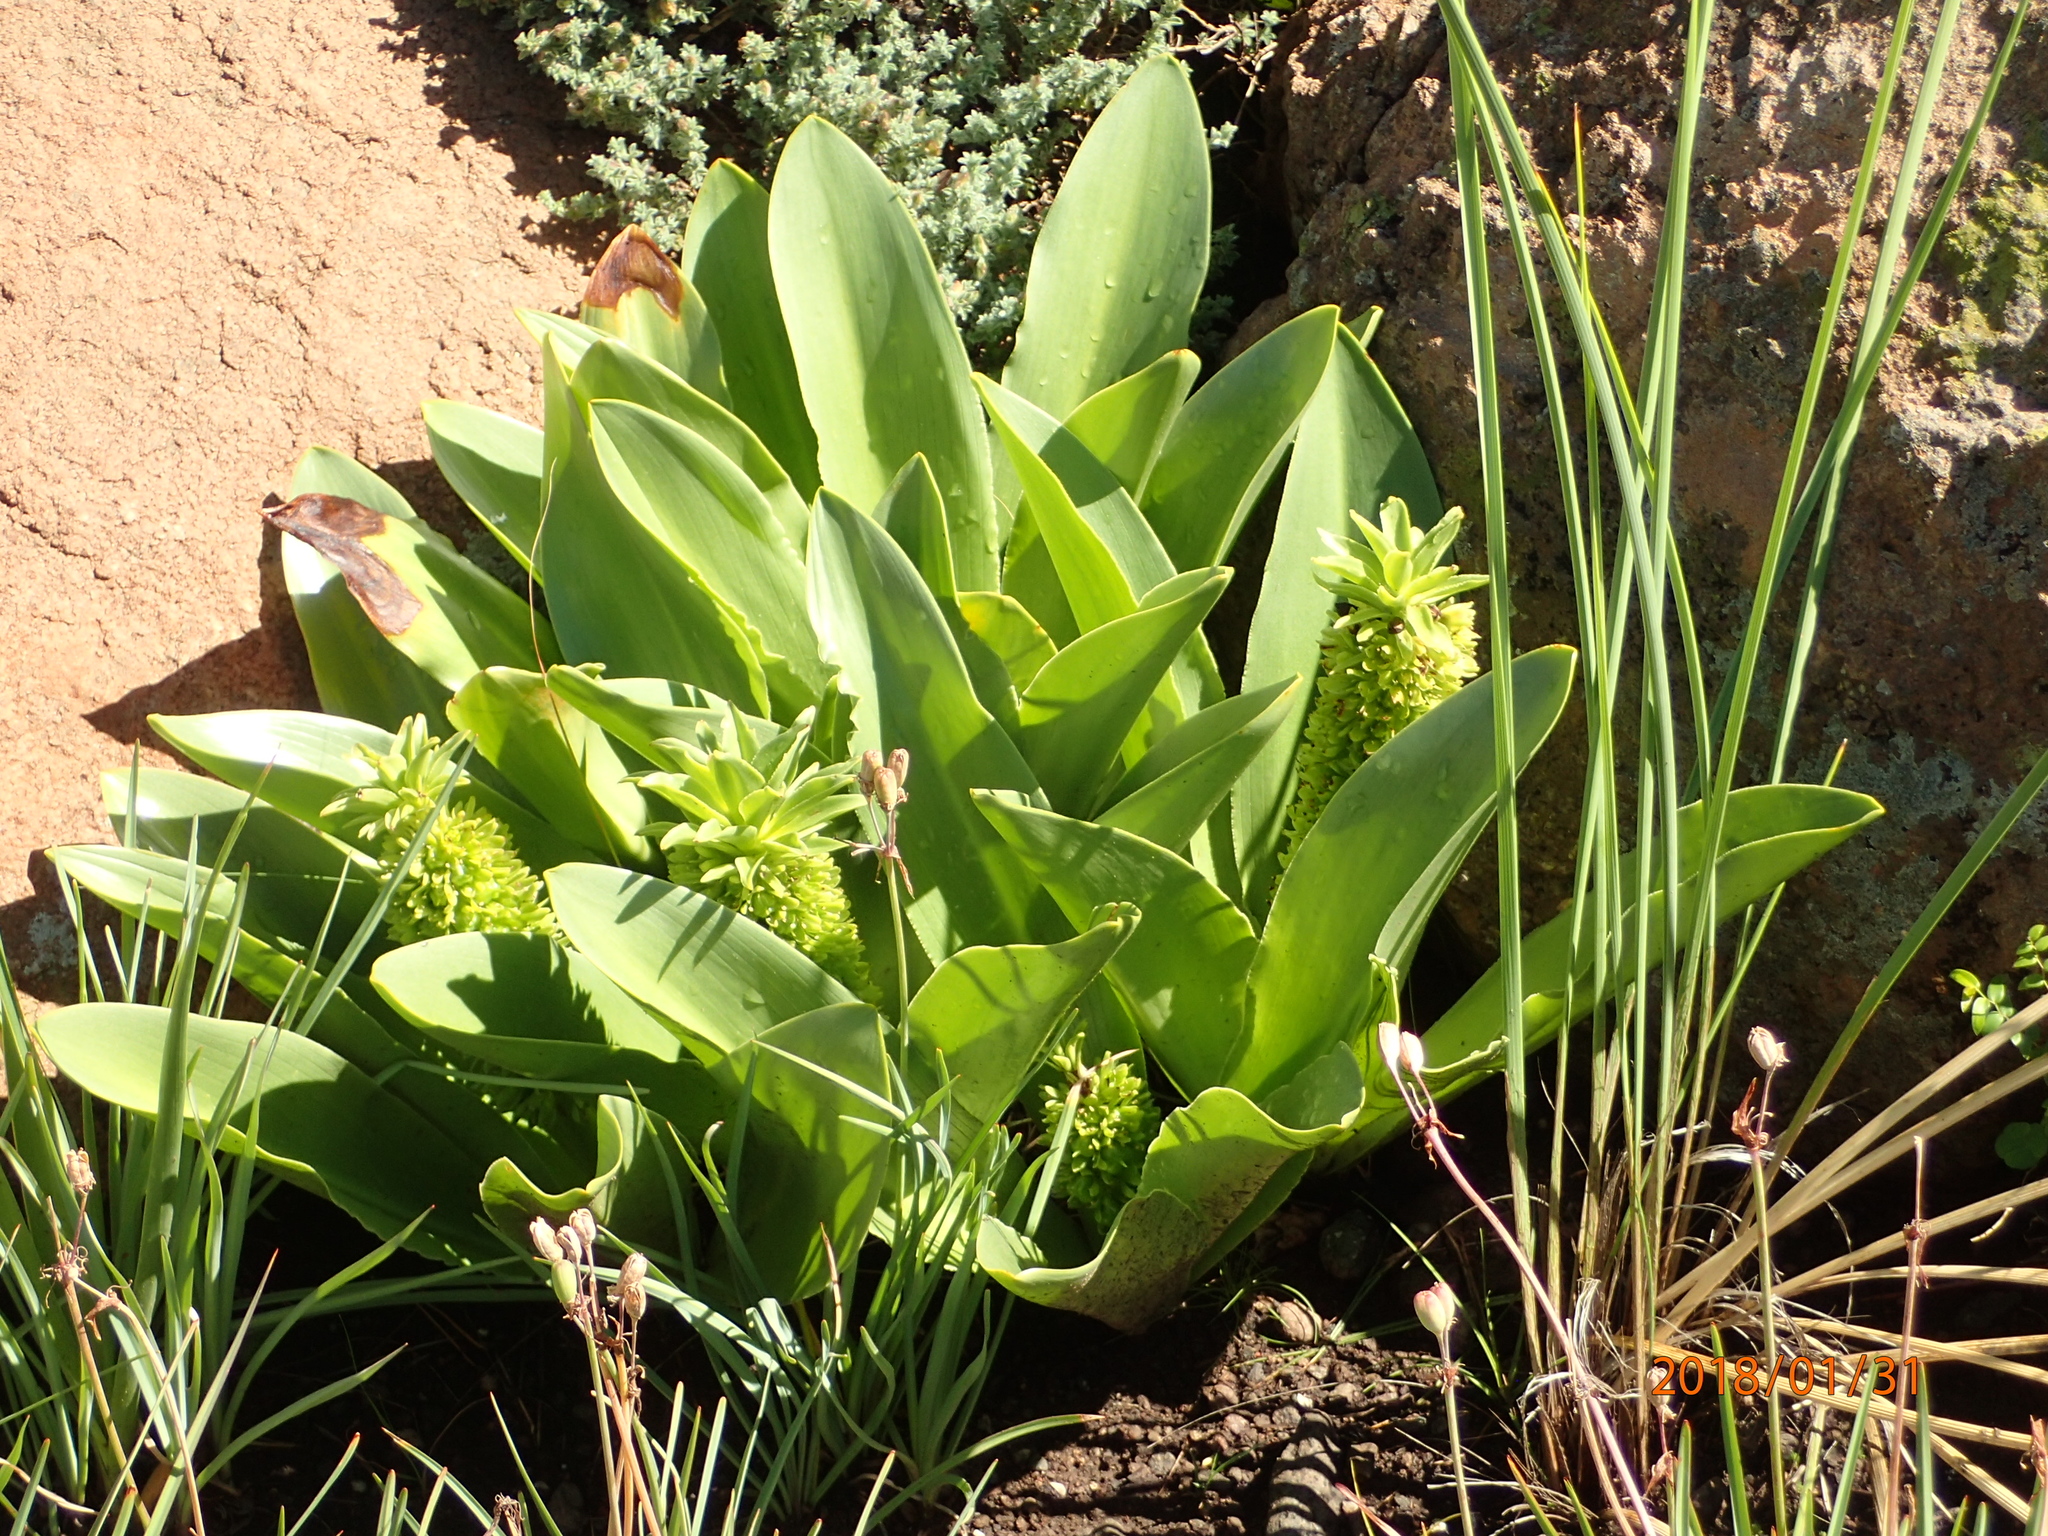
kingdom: Plantae
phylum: Tracheophyta
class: Liliopsida
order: Asparagales
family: Asparagaceae
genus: Eucomis
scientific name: Eucomis autumnalis
